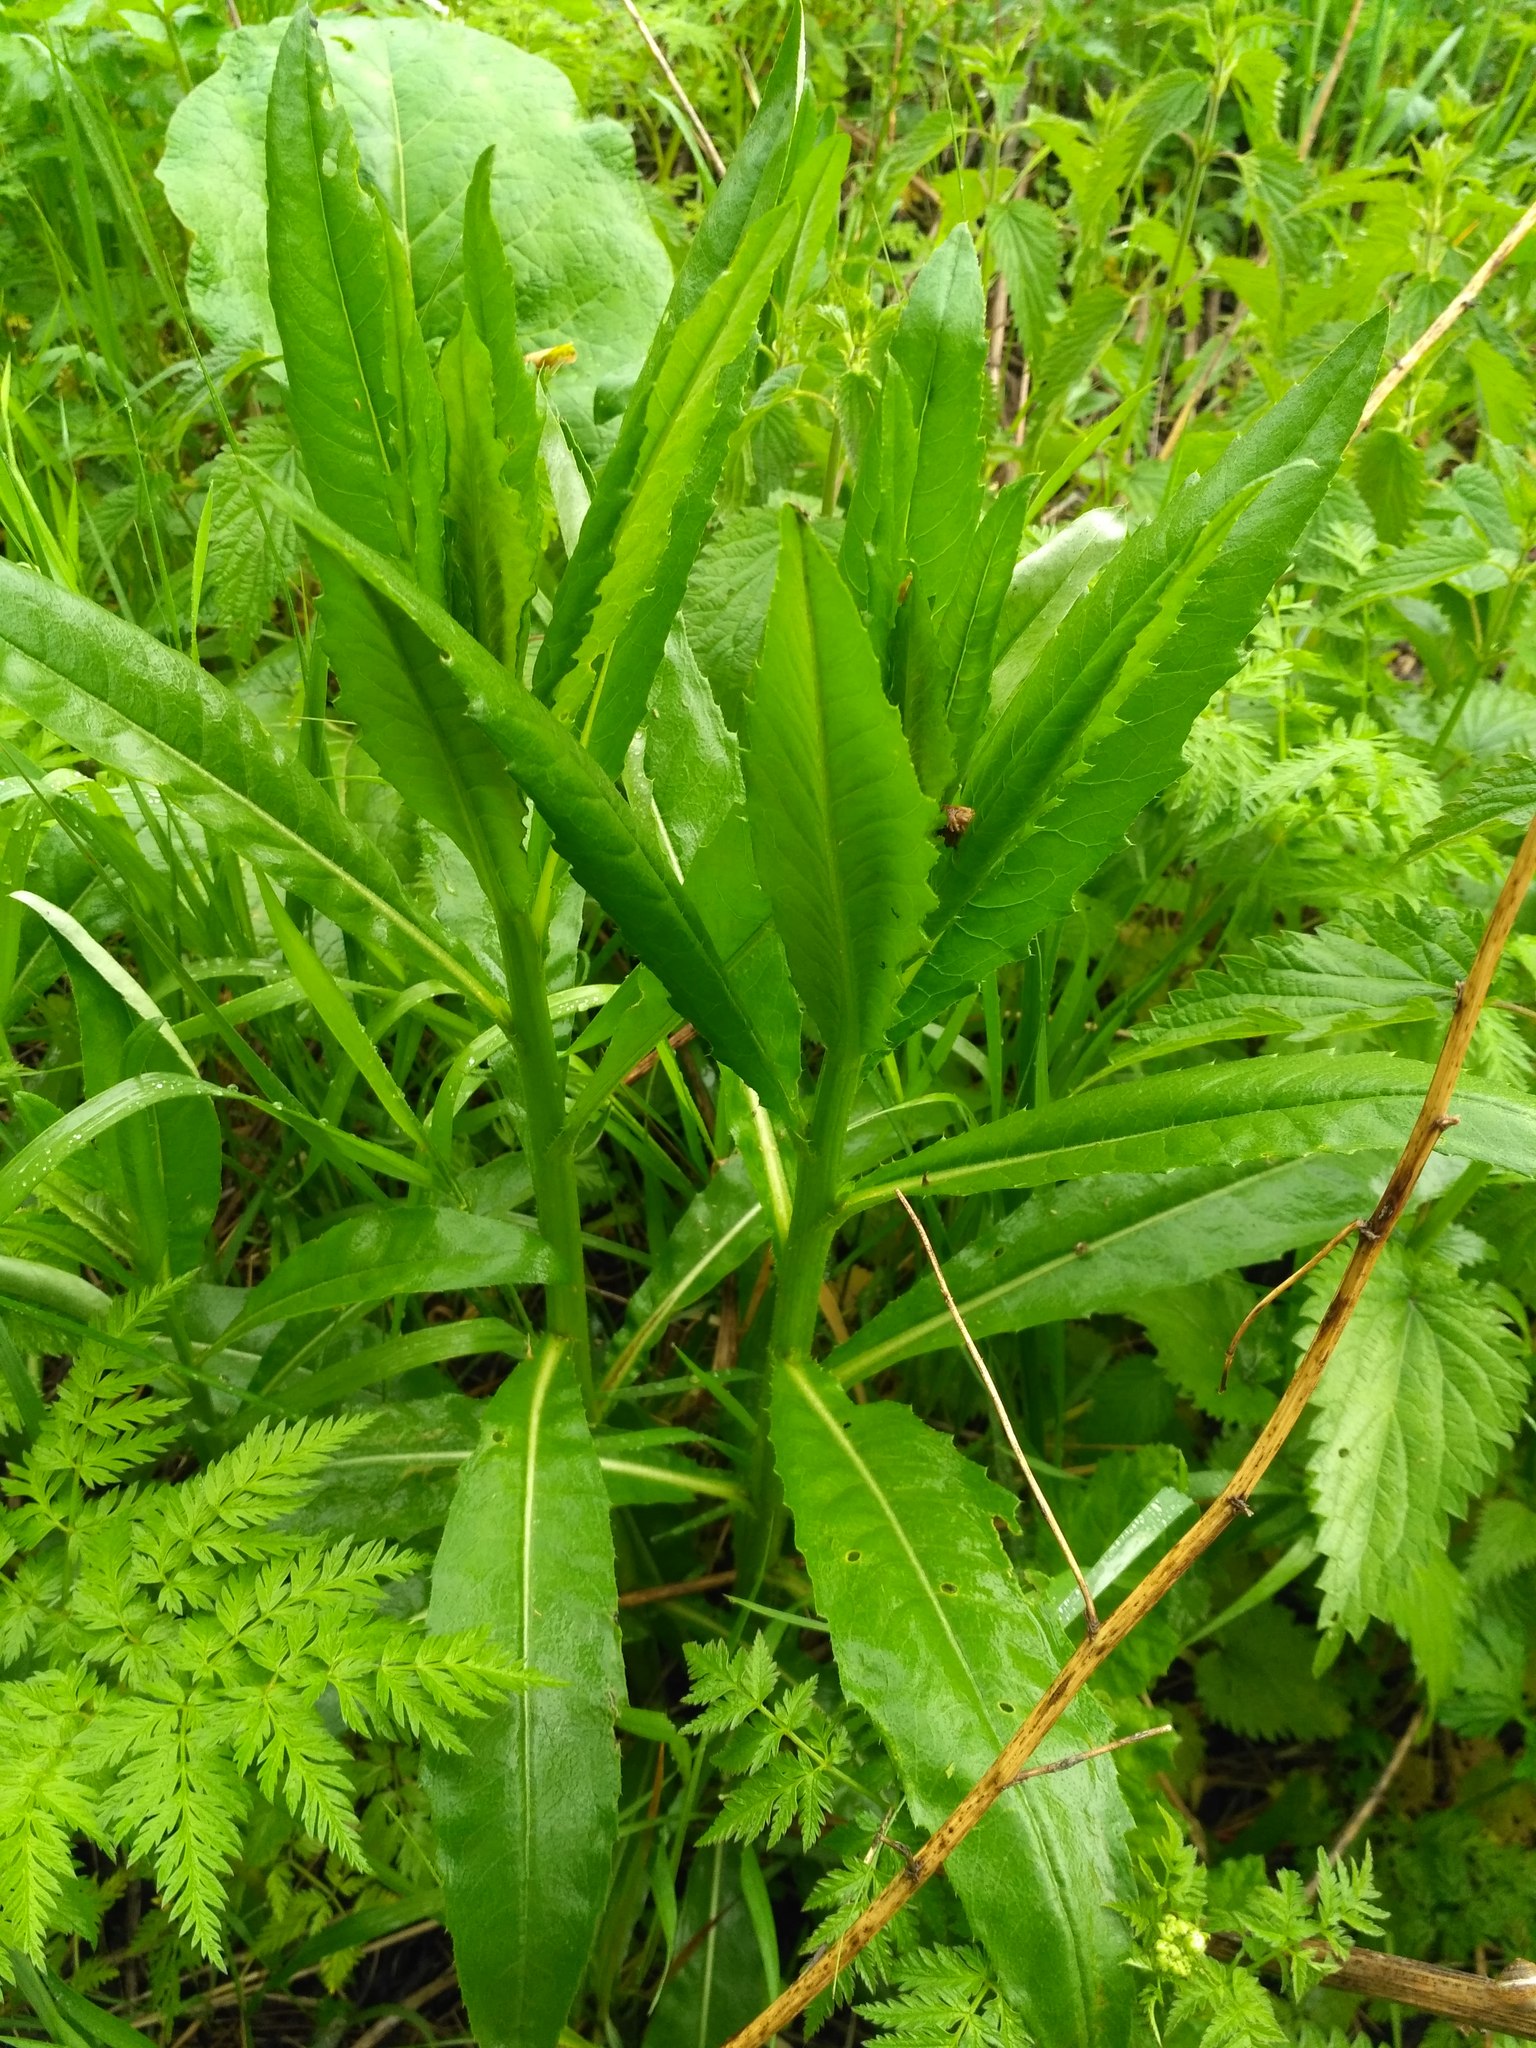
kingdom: Plantae
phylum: Tracheophyta
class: Magnoliopsida
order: Asterales
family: Asteraceae
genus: Cirsium
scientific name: Cirsium arvense
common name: Creeping thistle
